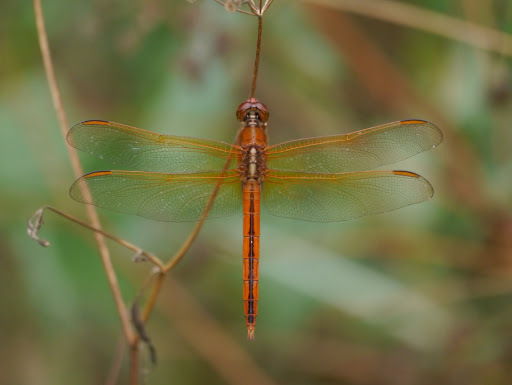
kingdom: Animalia
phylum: Arthropoda
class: Insecta
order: Odonata
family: Libellulidae
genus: Libellula
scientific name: Libellula needhami
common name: Needham's skimmer
